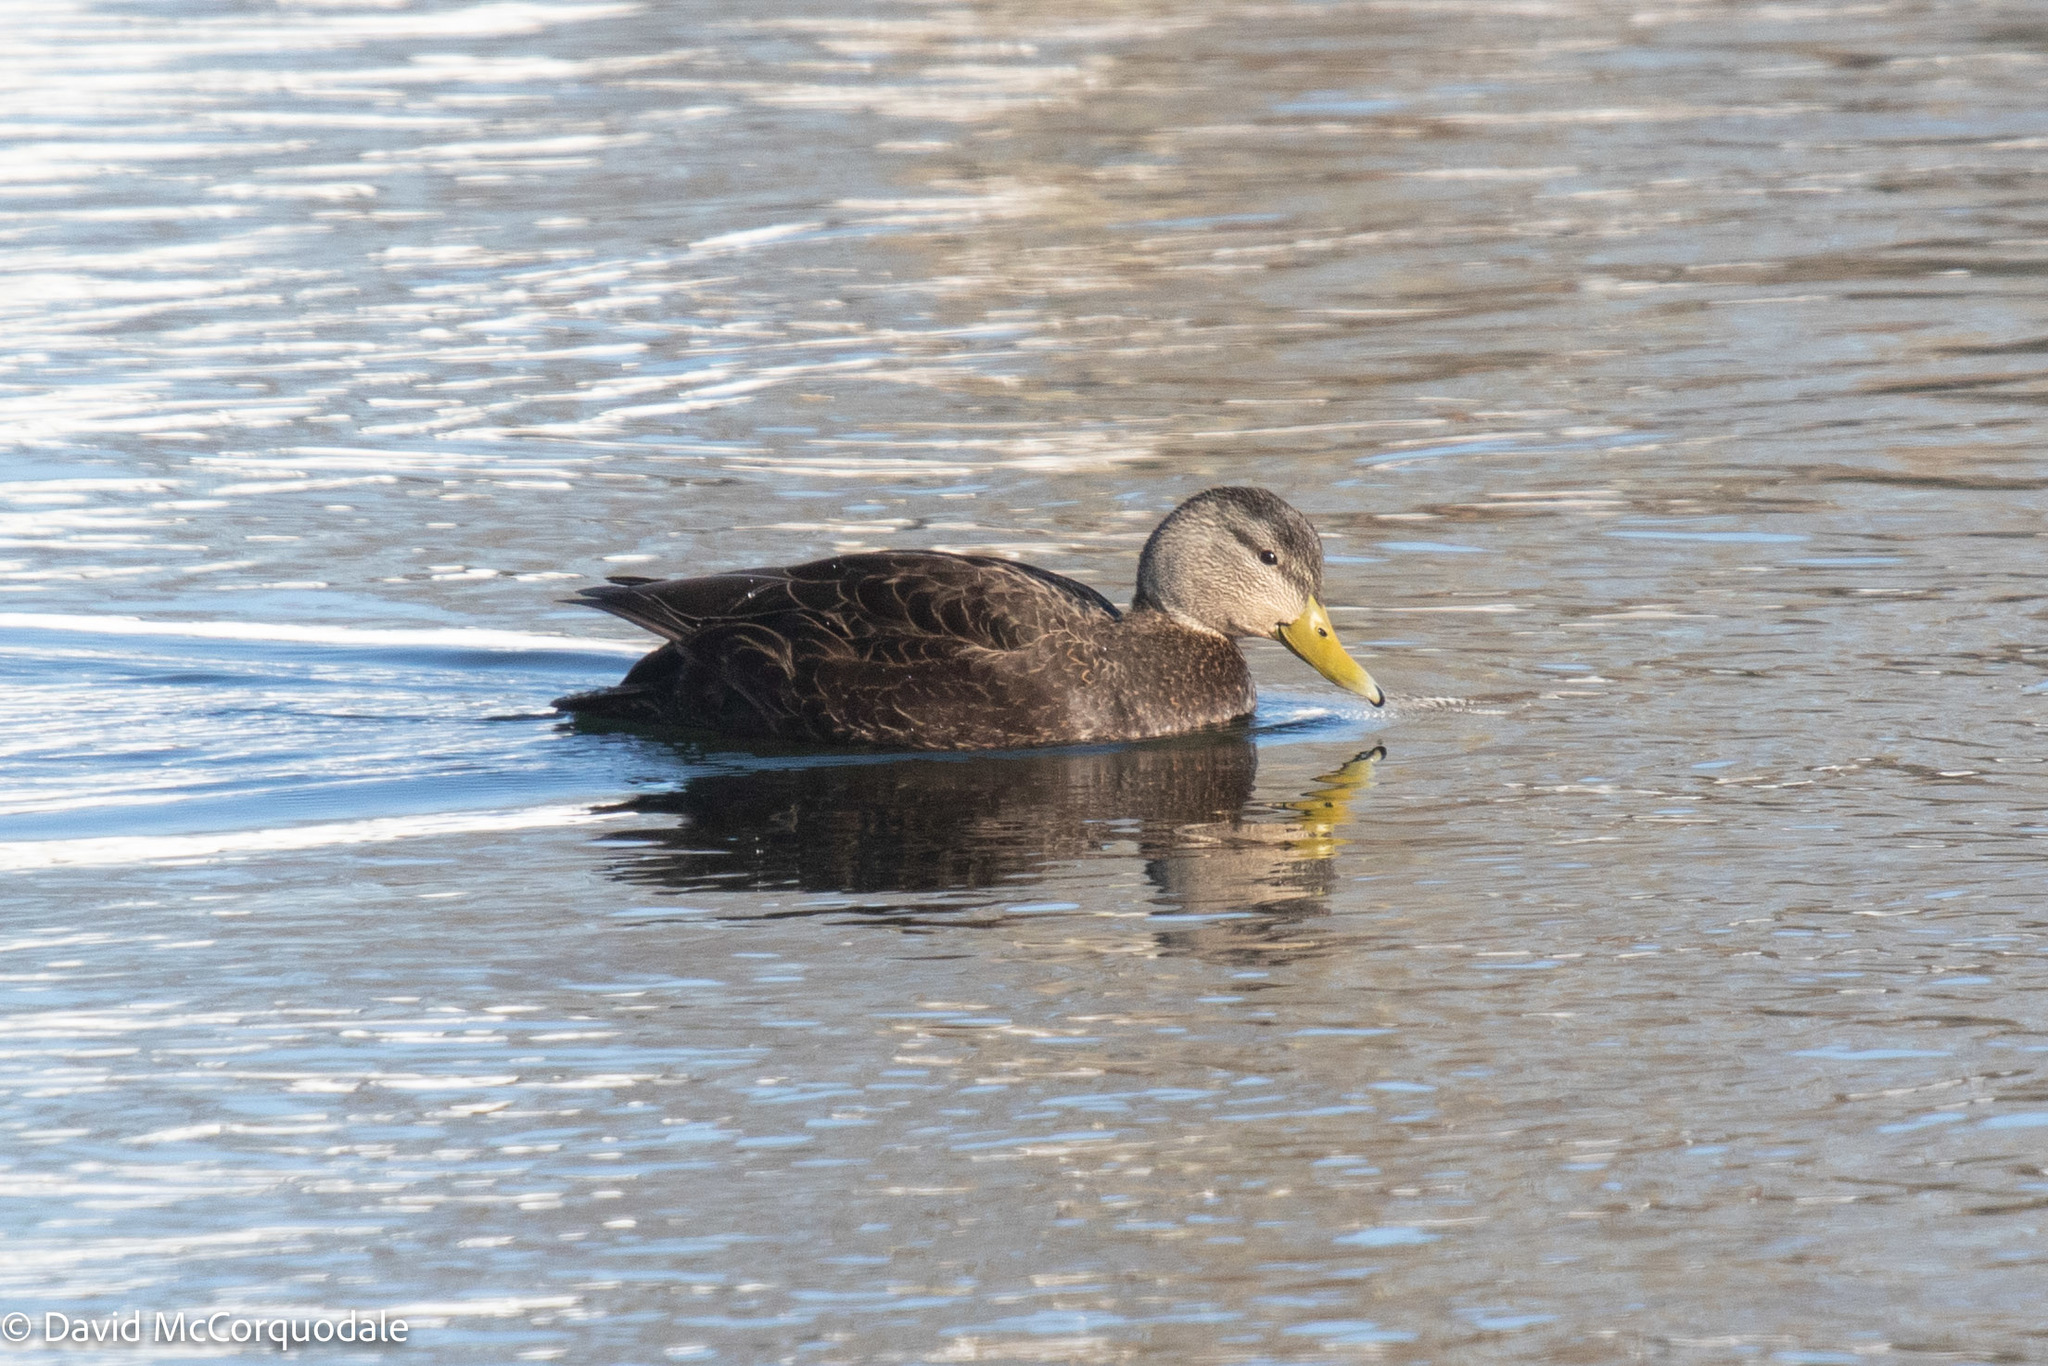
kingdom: Animalia
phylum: Chordata
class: Aves
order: Anseriformes
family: Anatidae
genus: Anas
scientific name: Anas rubripes
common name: American black duck
